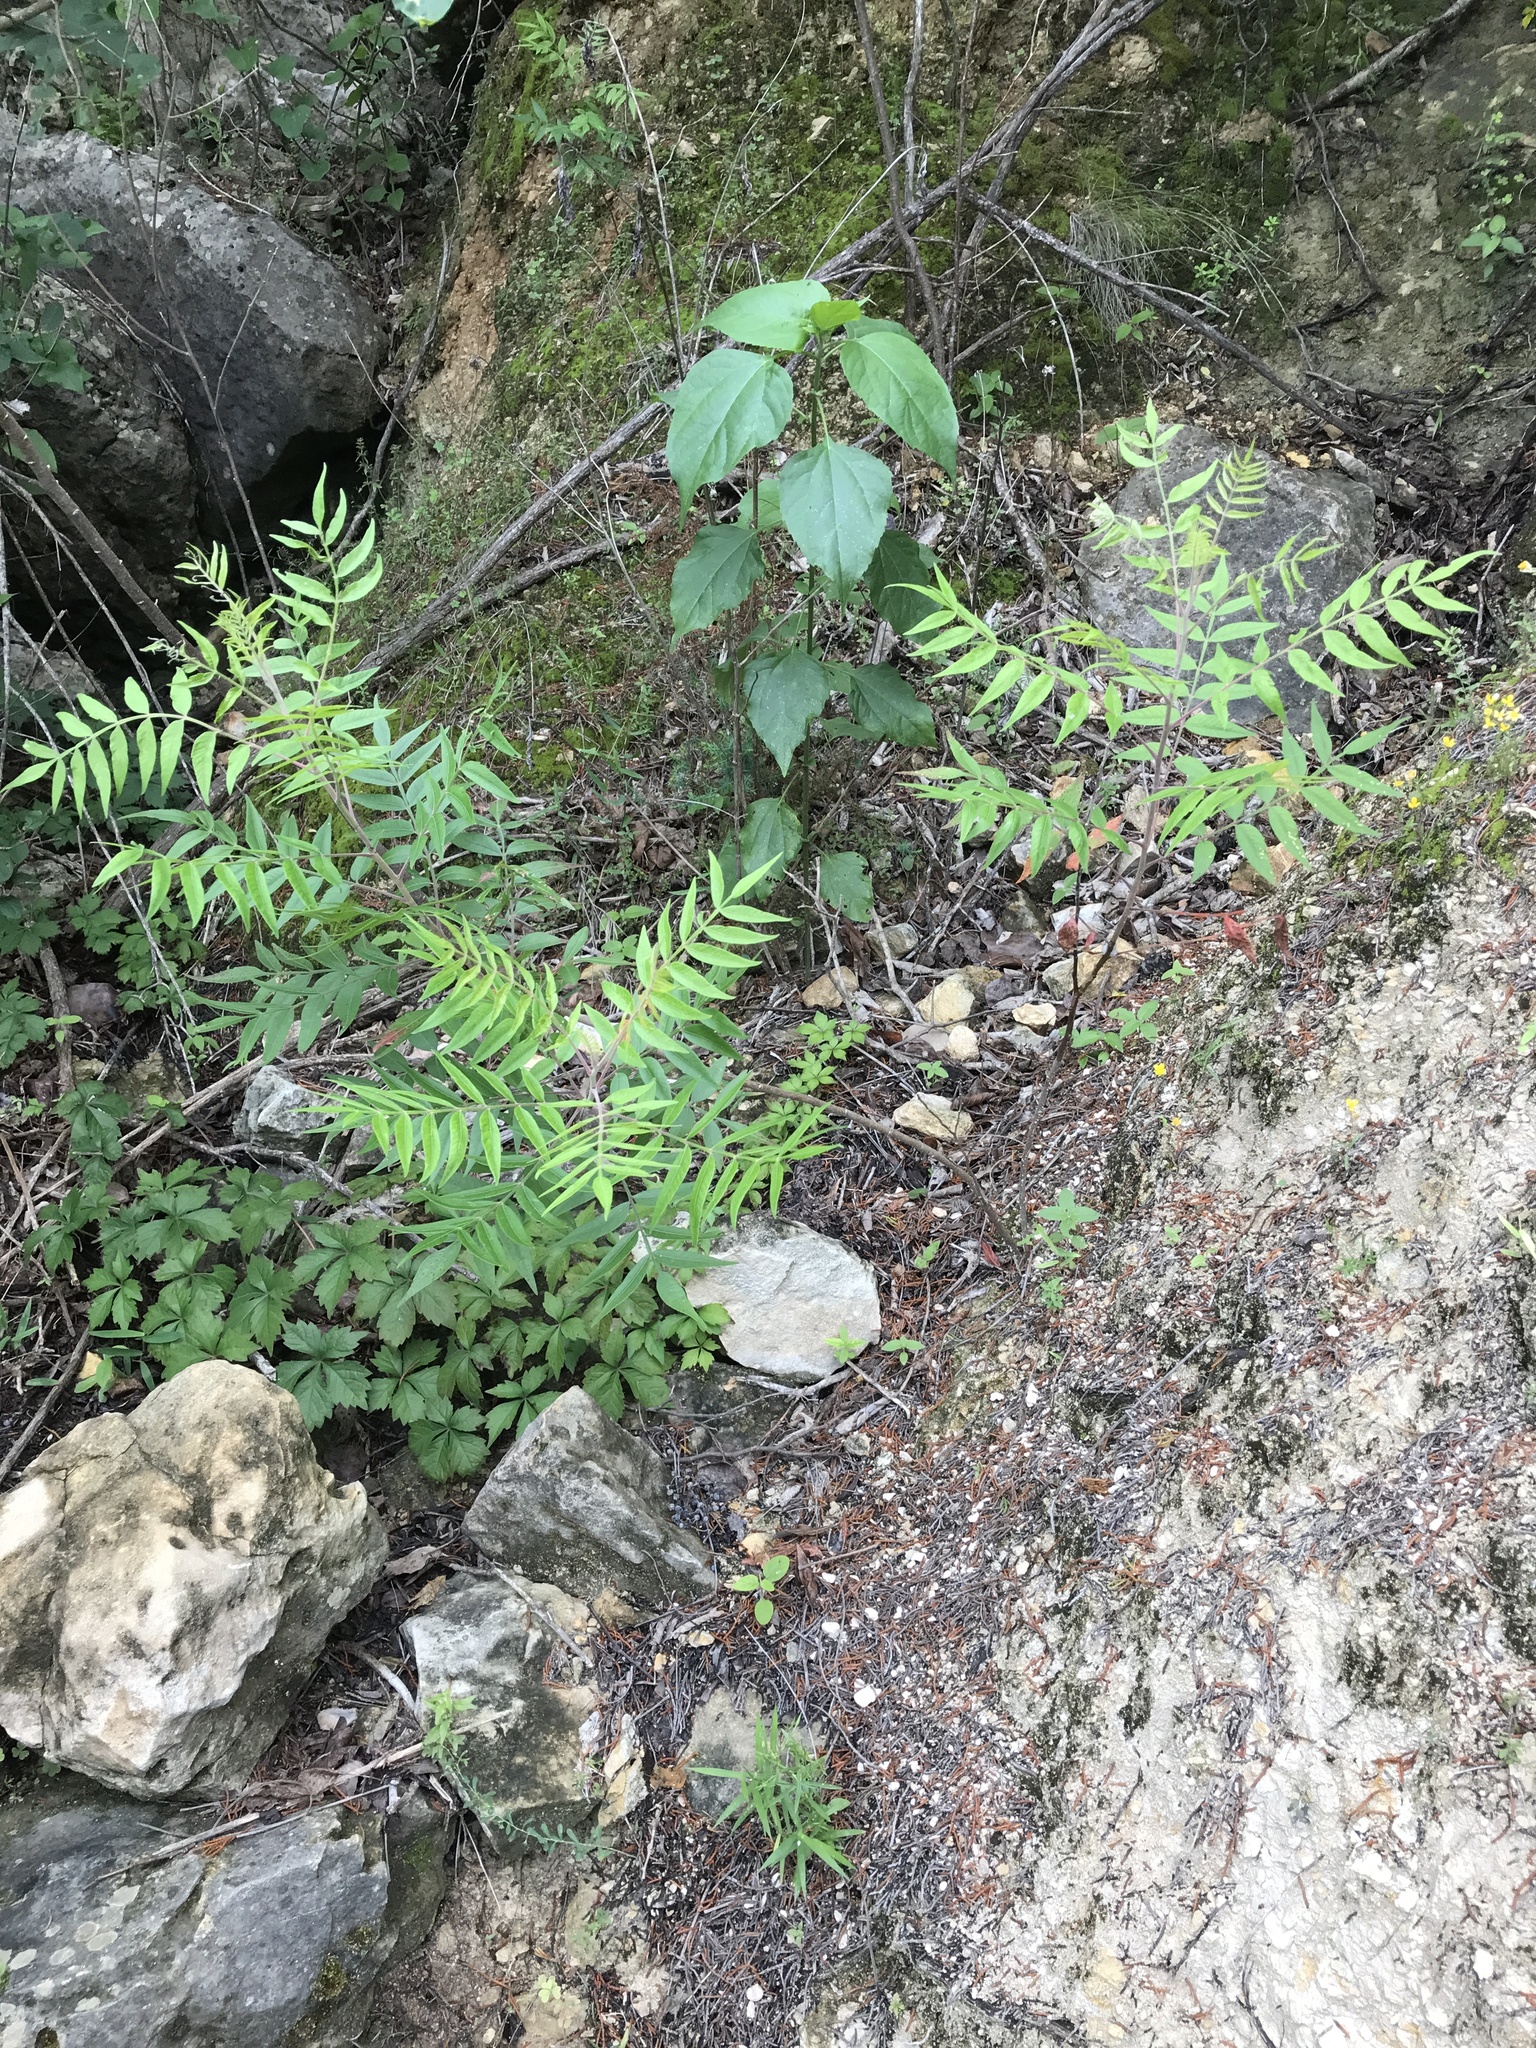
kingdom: Plantae
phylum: Tracheophyta
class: Magnoliopsida
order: Sapindales
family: Anacardiaceae
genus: Rhus
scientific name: Rhus lanceolata
